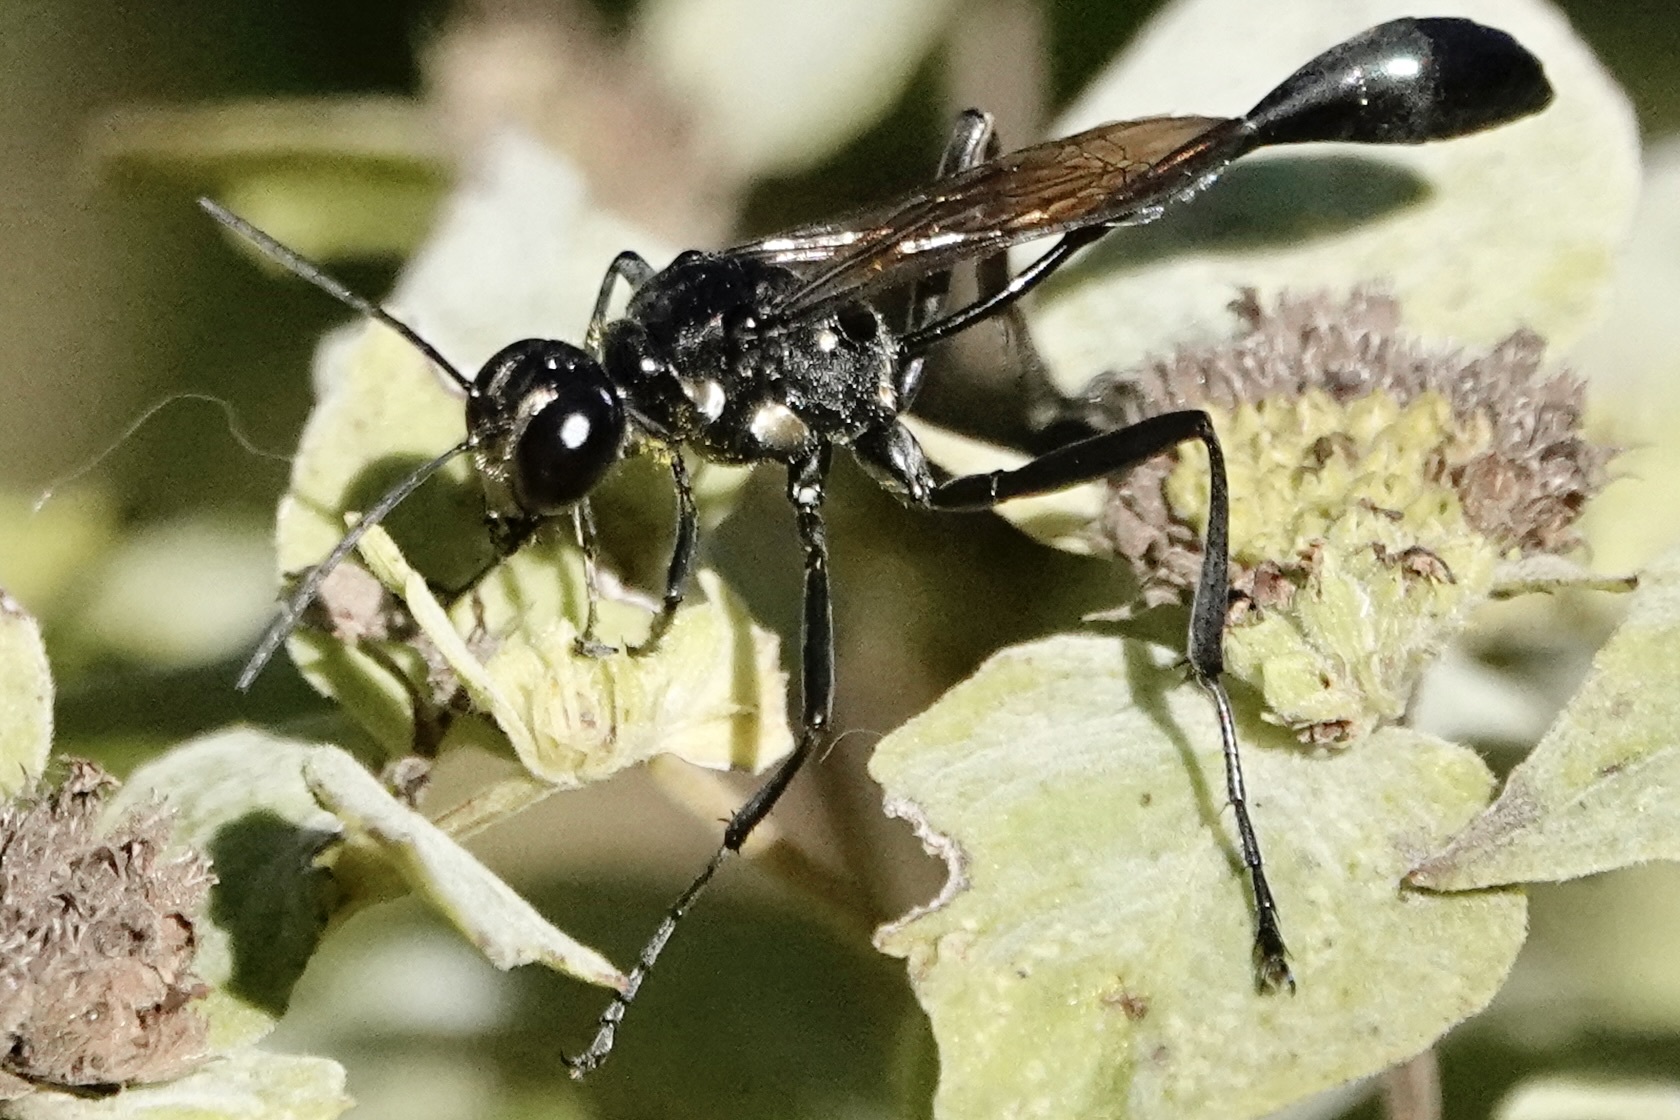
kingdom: Animalia
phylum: Arthropoda
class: Insecta
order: Hymenoptera
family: Sphecidae
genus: Eremnophila
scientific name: Eremnophila aureonotata
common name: Gold-marked thread-waisted wasp
